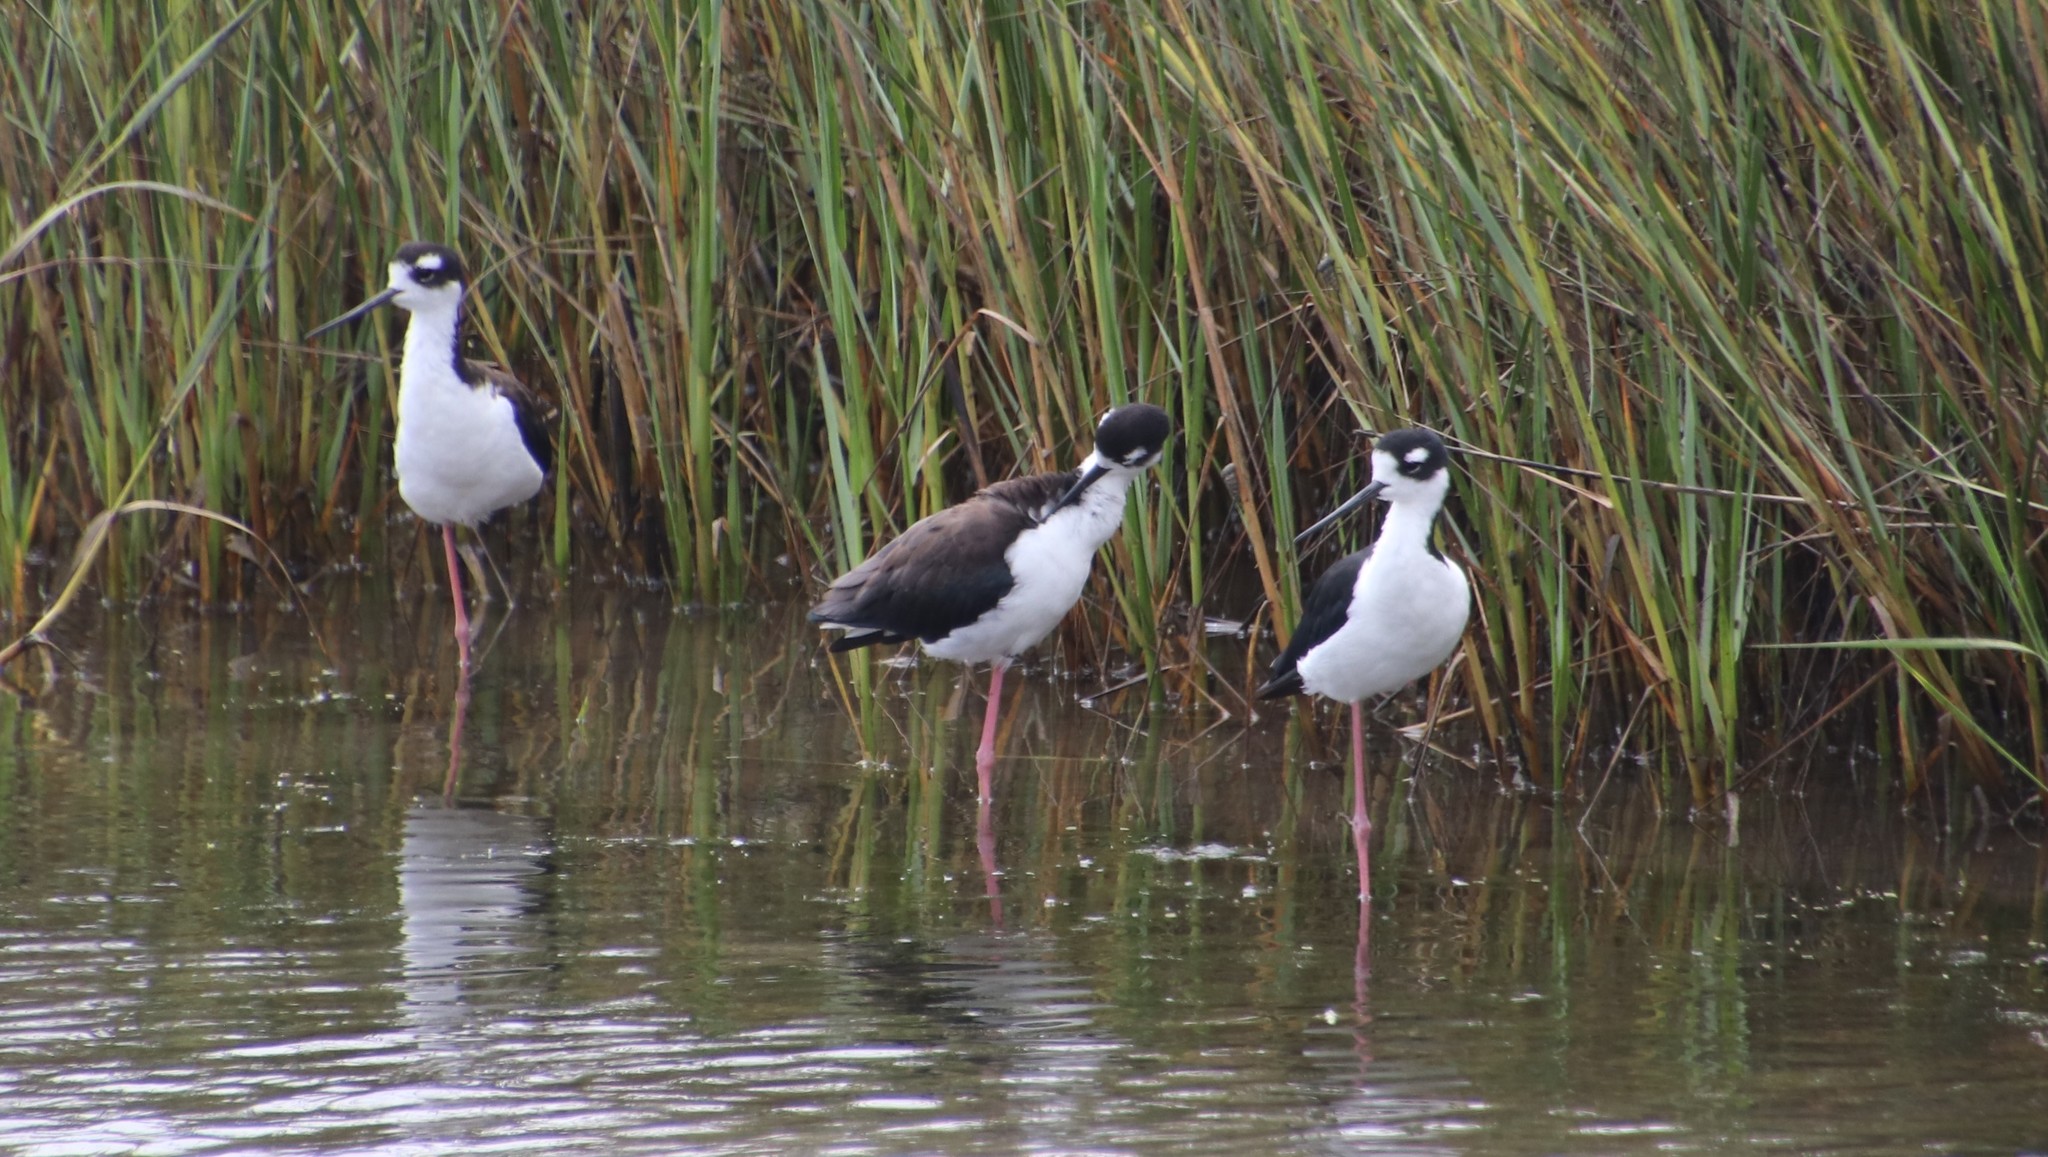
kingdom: Animalia
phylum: Chordata
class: Aves
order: Charadriiformes
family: Recurvirostridae
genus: Himantopus
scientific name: Himantopus mexicanus
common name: Black-necked stilt
